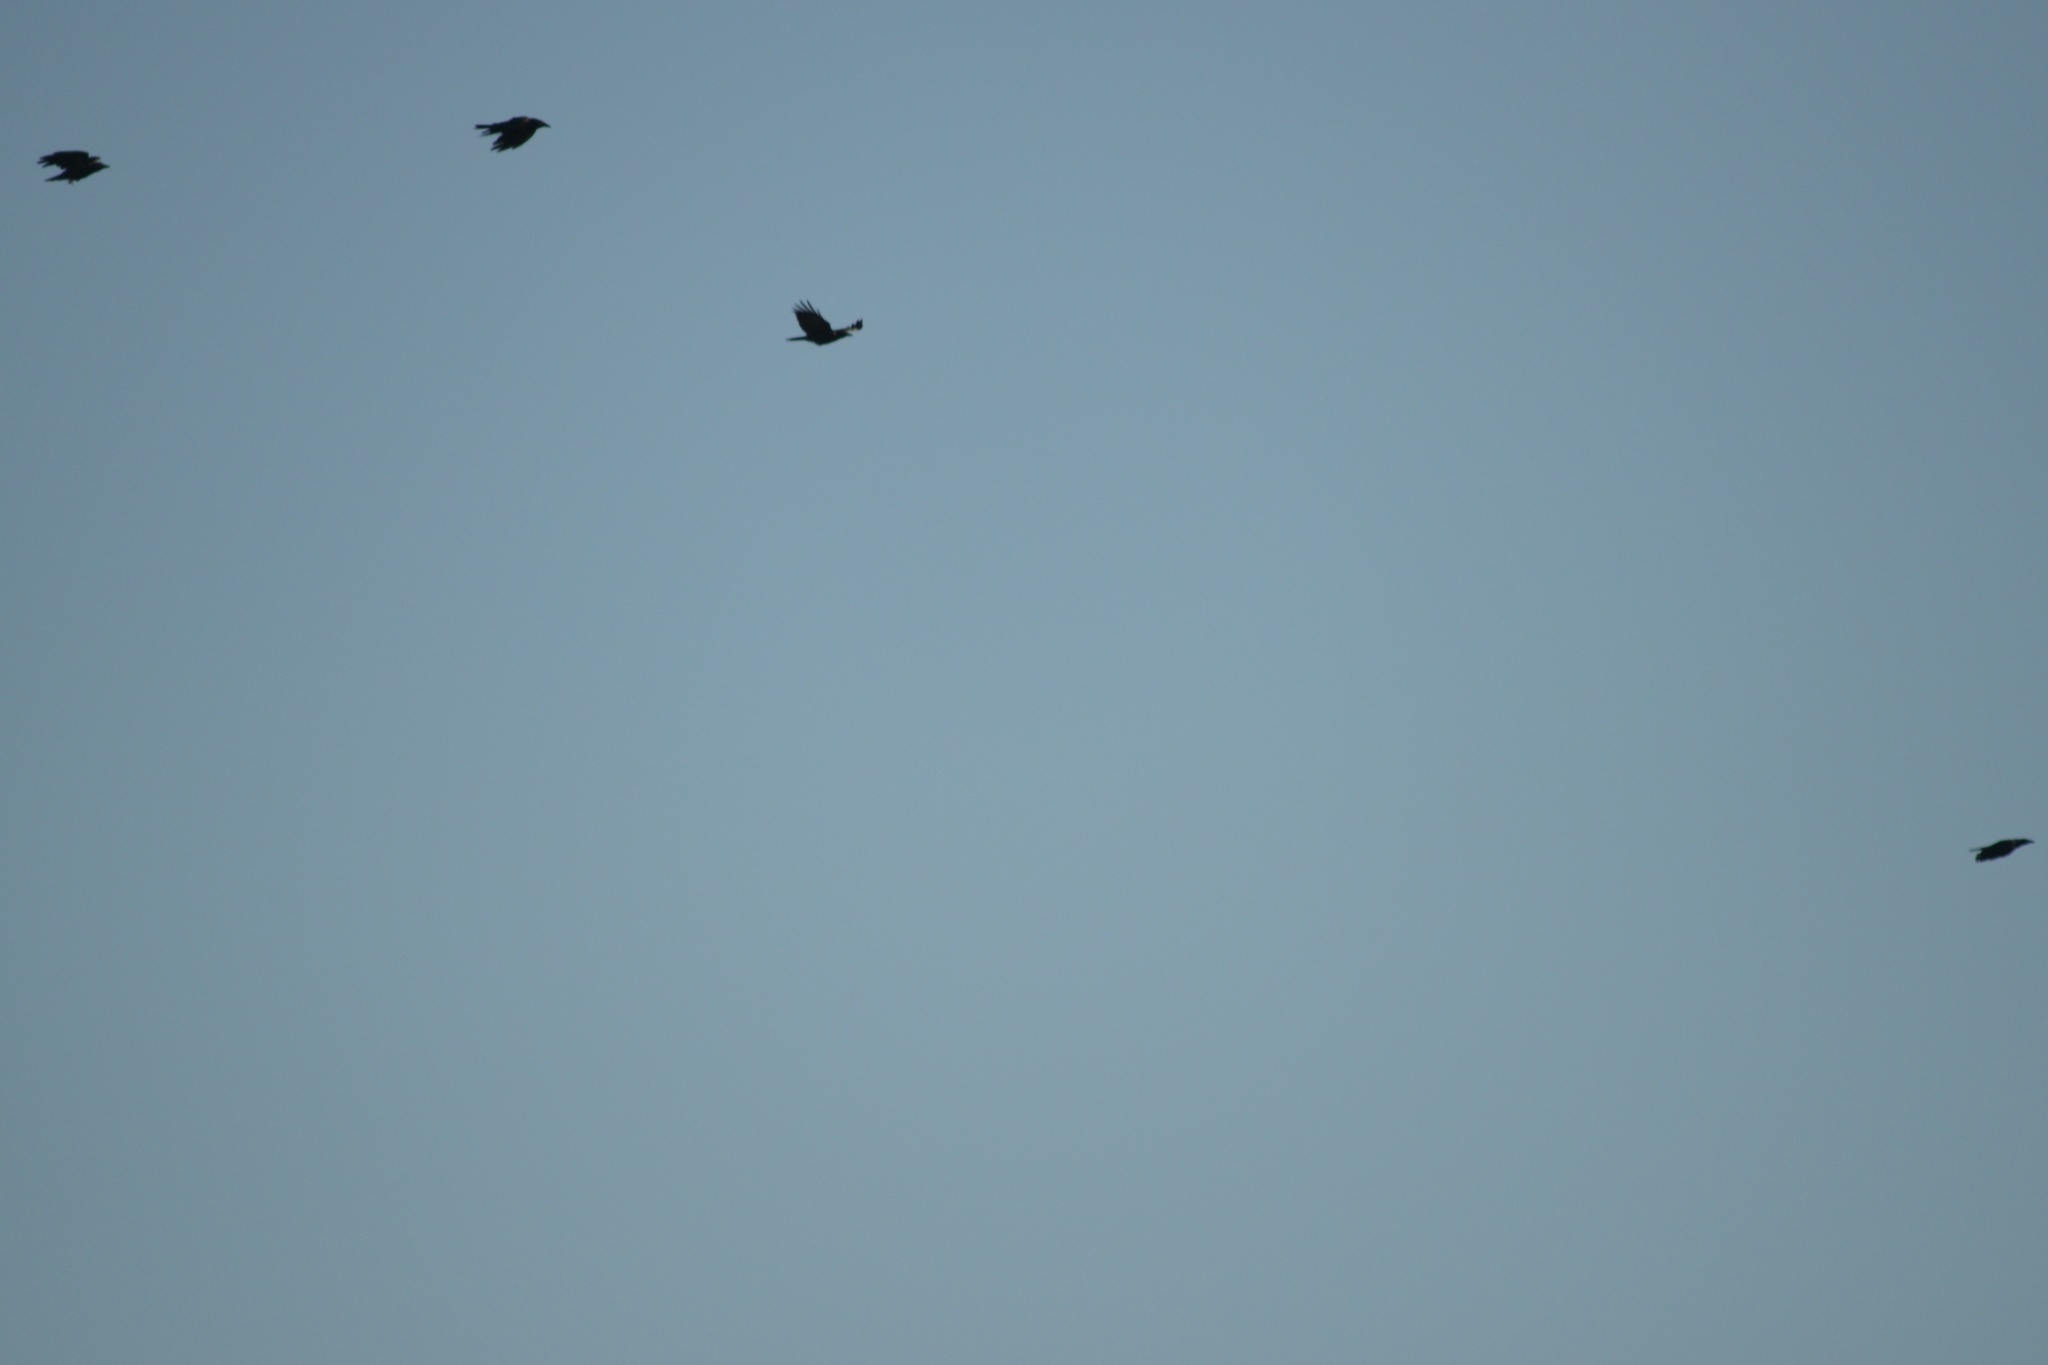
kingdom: Animalia
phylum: Chordata
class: Aves
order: Passeriformes
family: Corvidae
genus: Corvus
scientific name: Corvus brachyrhynchos
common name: American crow
